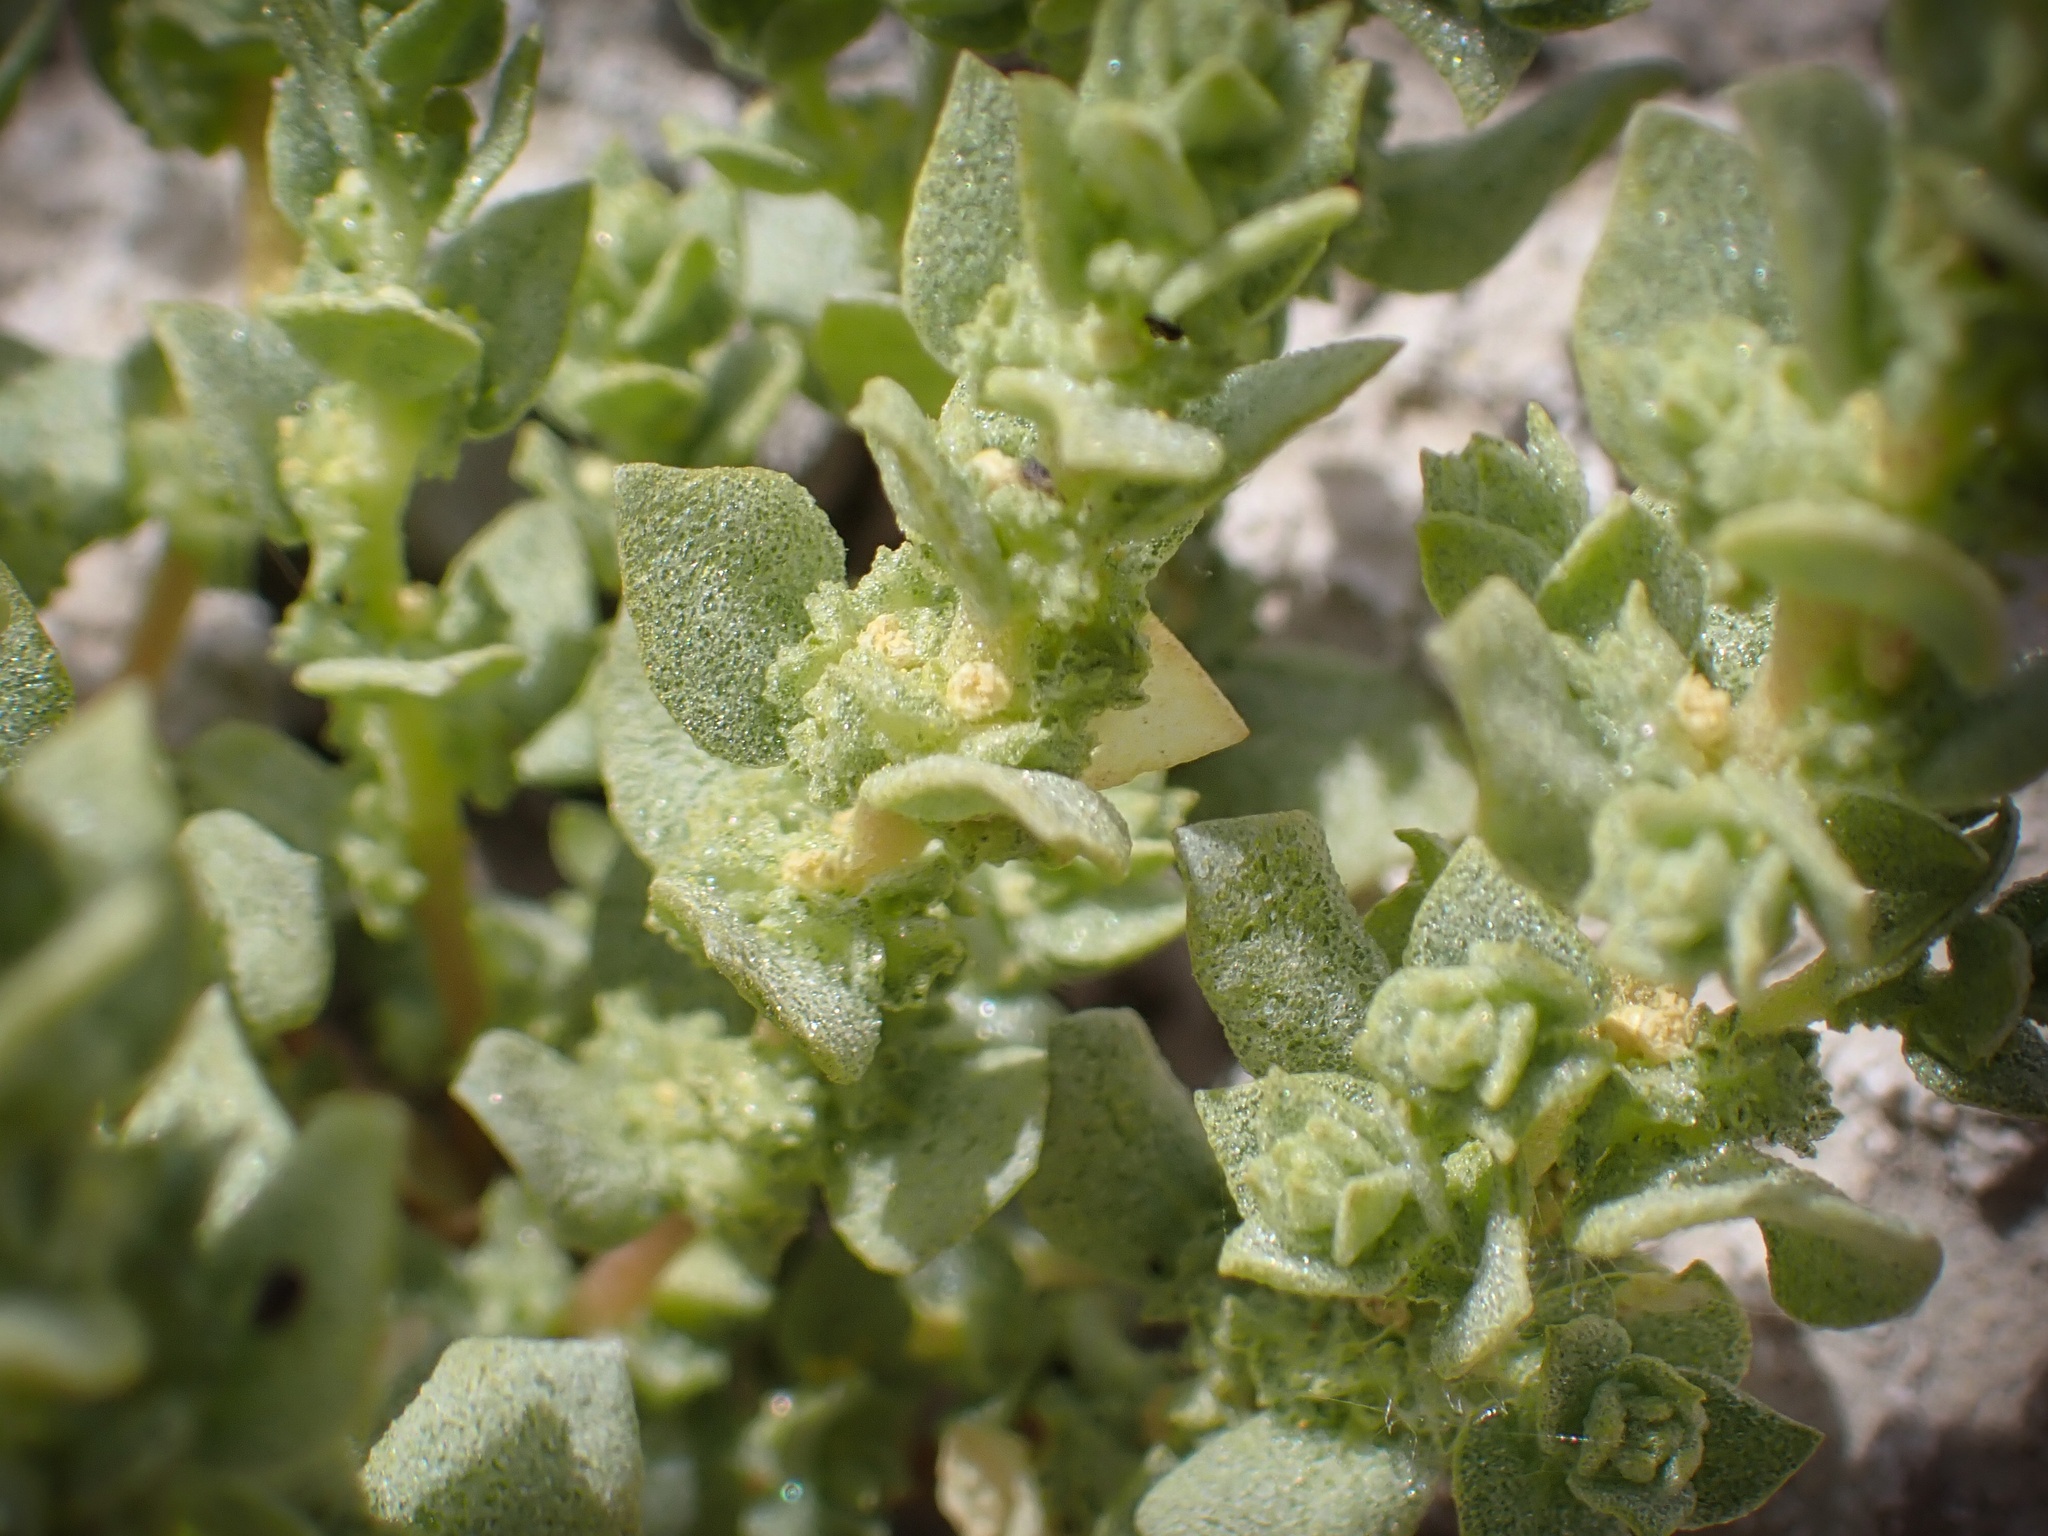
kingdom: Plantae
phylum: Tracheophyta
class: Magnoliopsida
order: Caryophyllales
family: Amaranthaceae
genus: Atriplex
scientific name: Atriplex flavida
